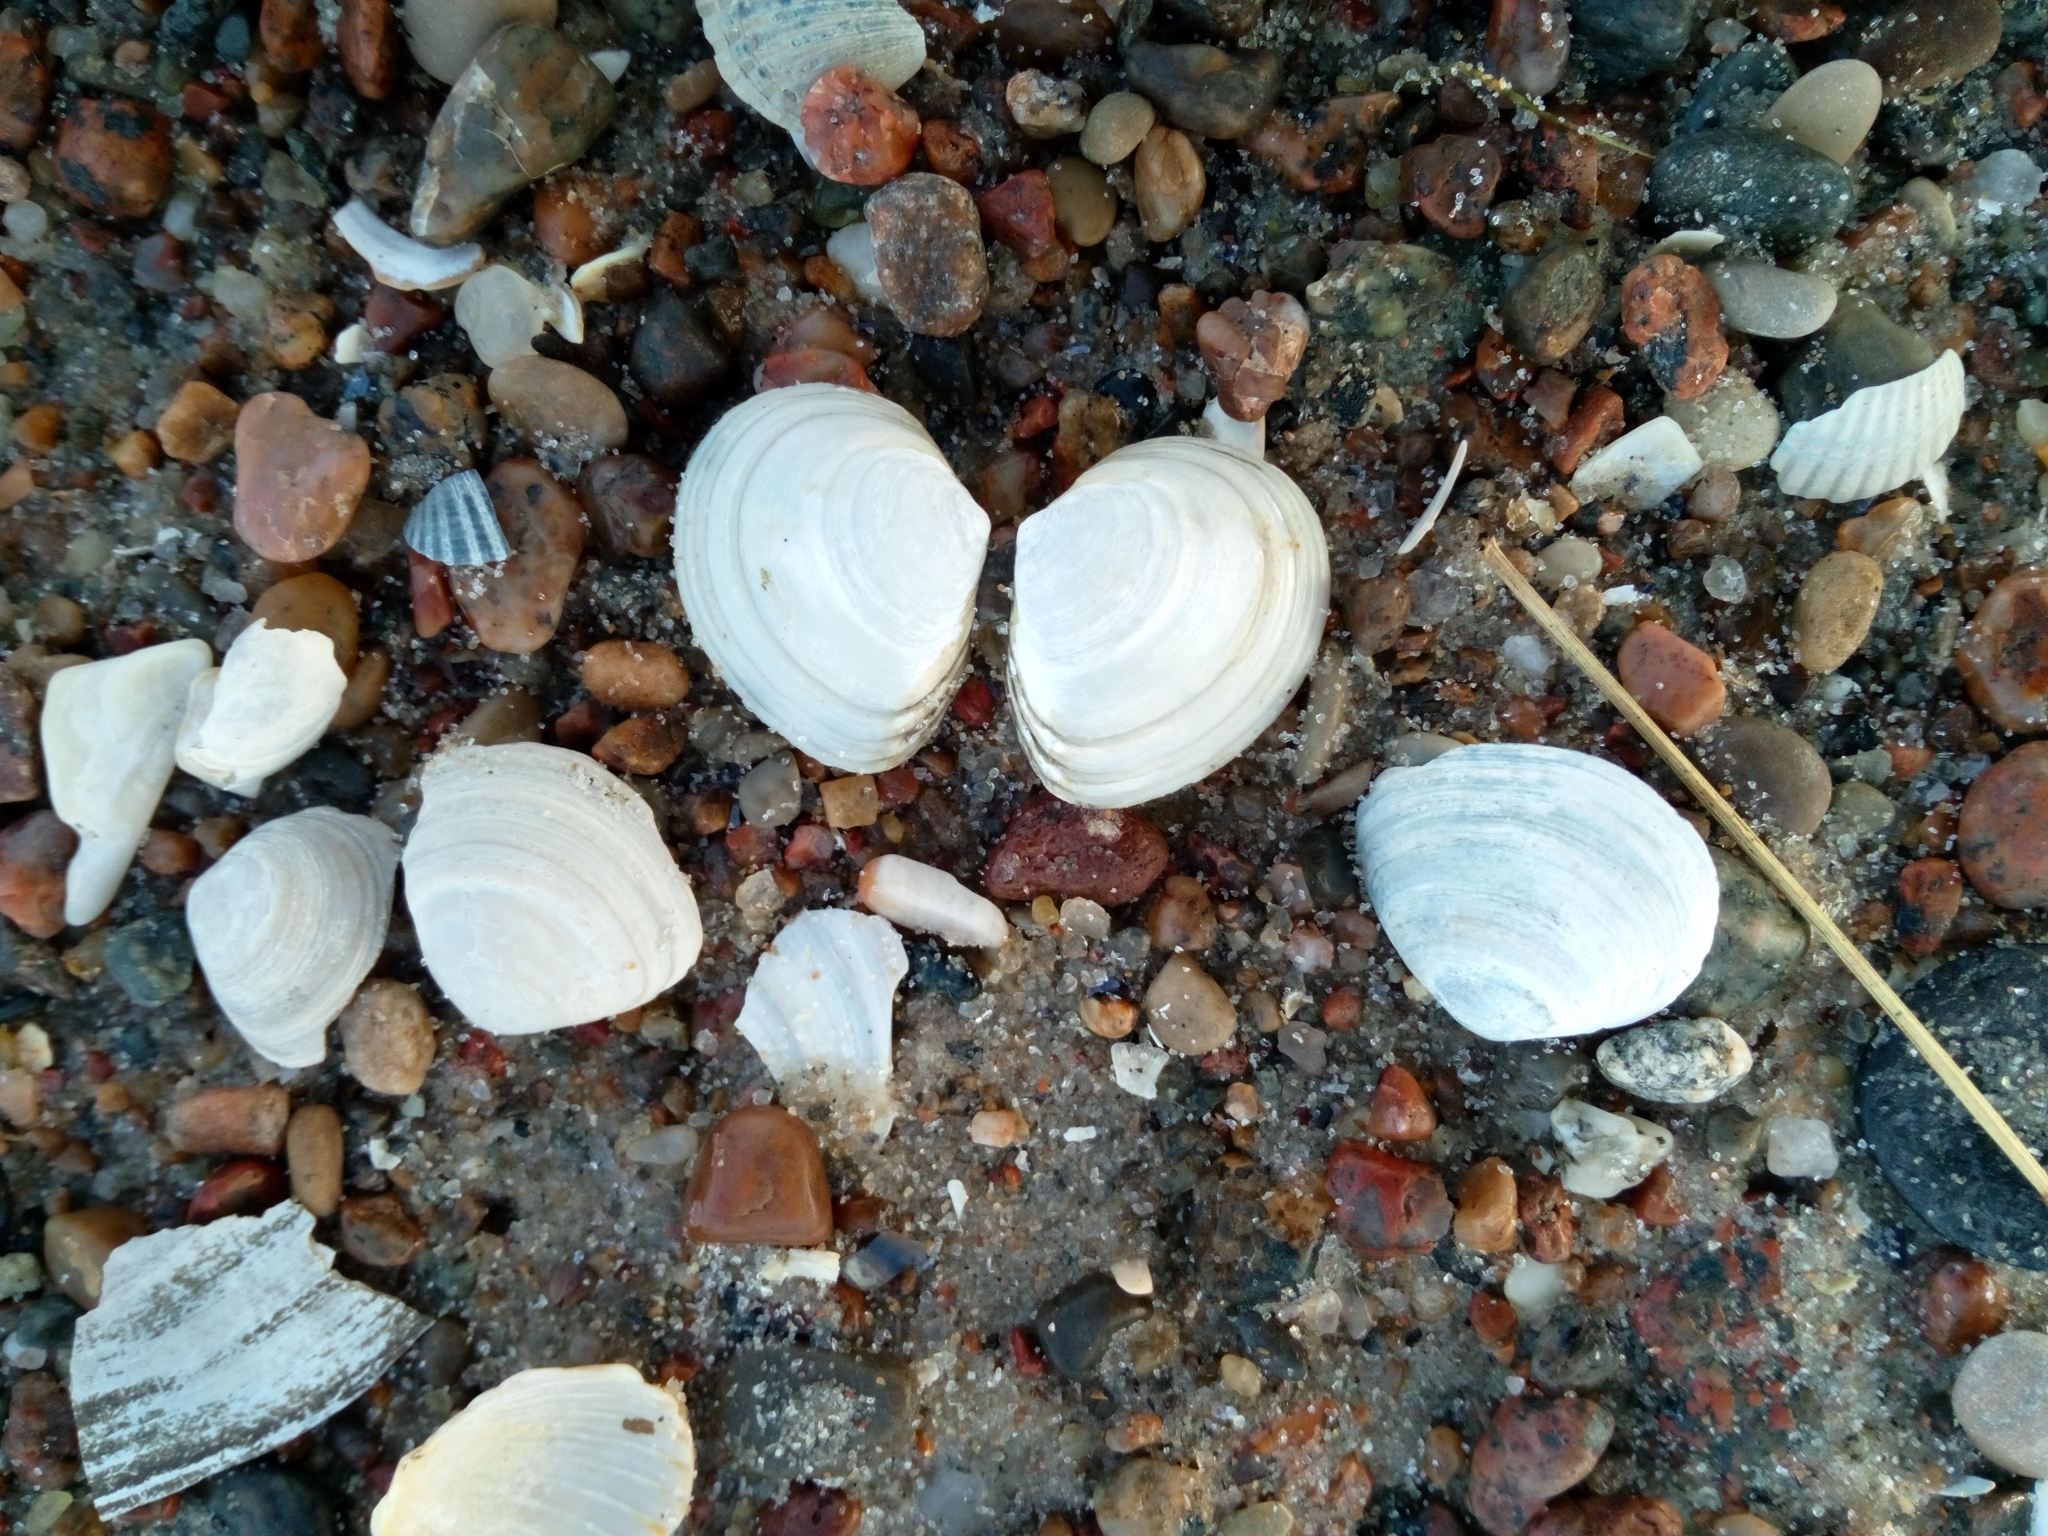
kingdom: Animalia
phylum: Mollusca
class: Bivalvia
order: Cardiida
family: Tellinidae
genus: Macoma
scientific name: Macoma balthica
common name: Baltic tellin
